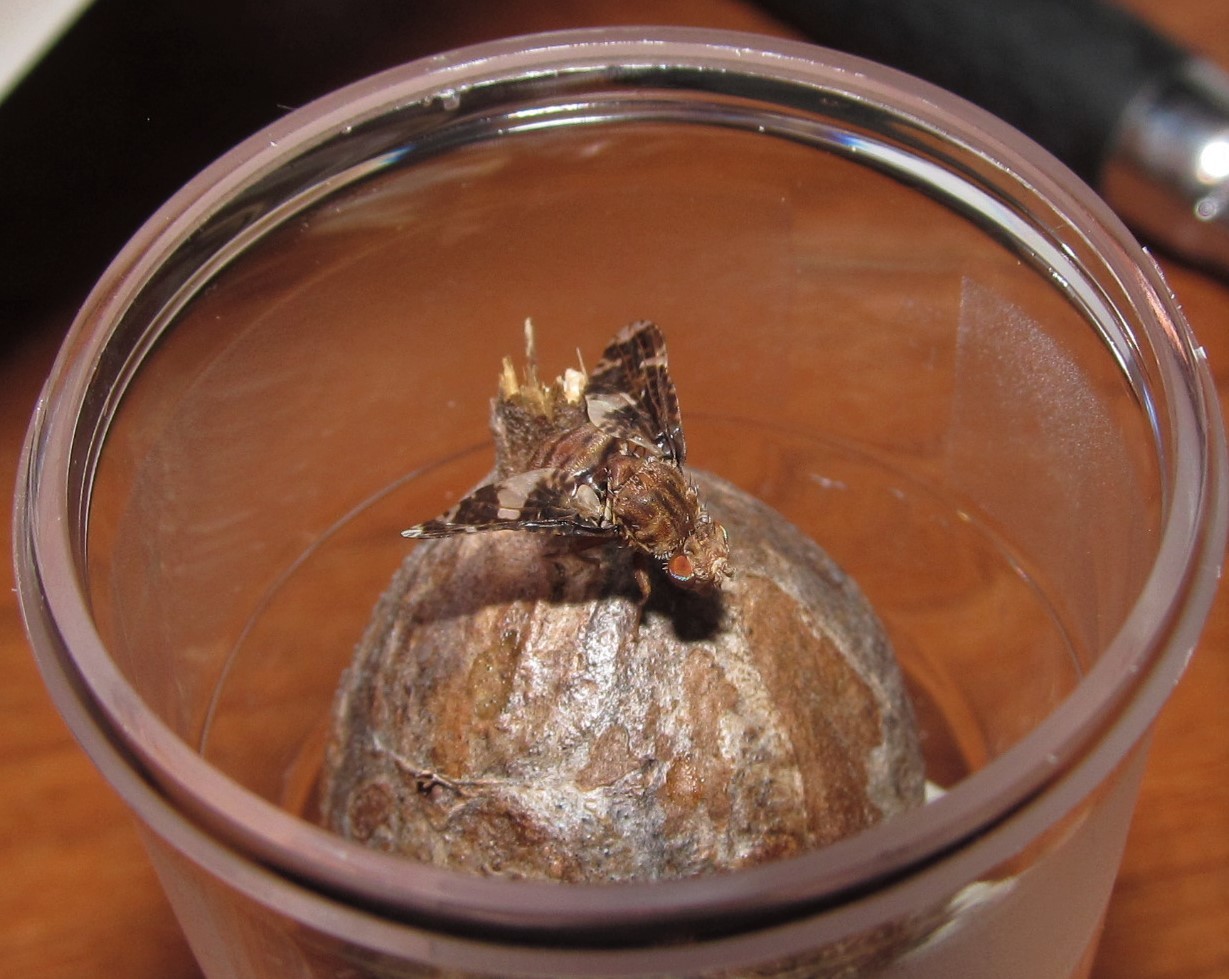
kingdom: Animalia
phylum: Arthropoda
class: Insecta
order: Diptera
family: Tephritidae
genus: Eurosta
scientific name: Eurosta solidaginis
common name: Goldenrod gall fly
